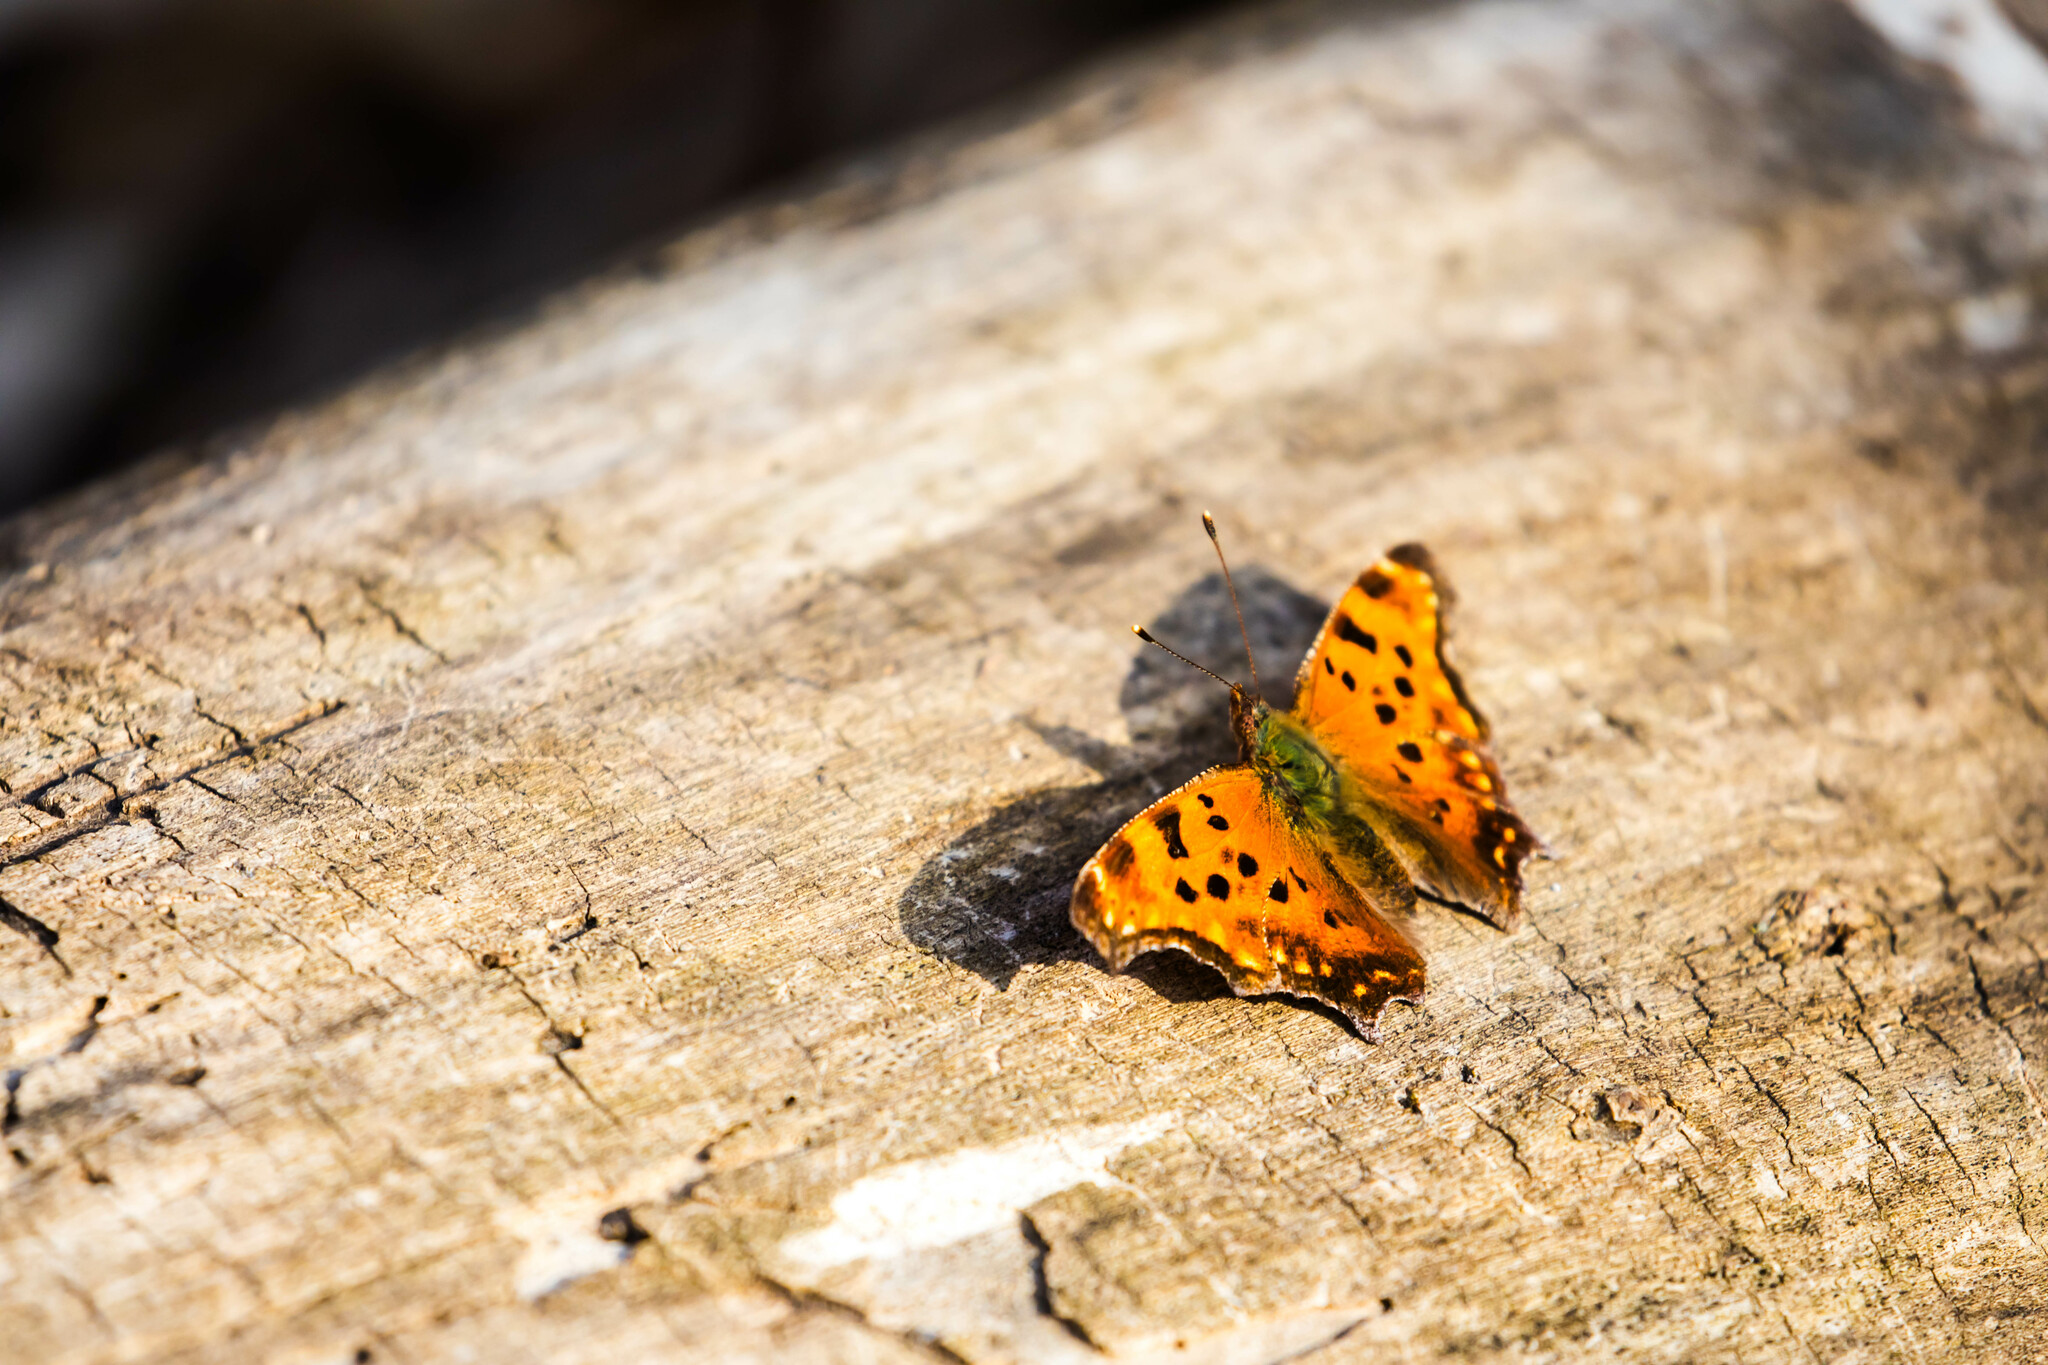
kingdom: Animalia
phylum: Arthropoda
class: Insecta
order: Lepidoptera
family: Nymphalidae
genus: Polygonia
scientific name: Polygonia comma
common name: Eastern comma
